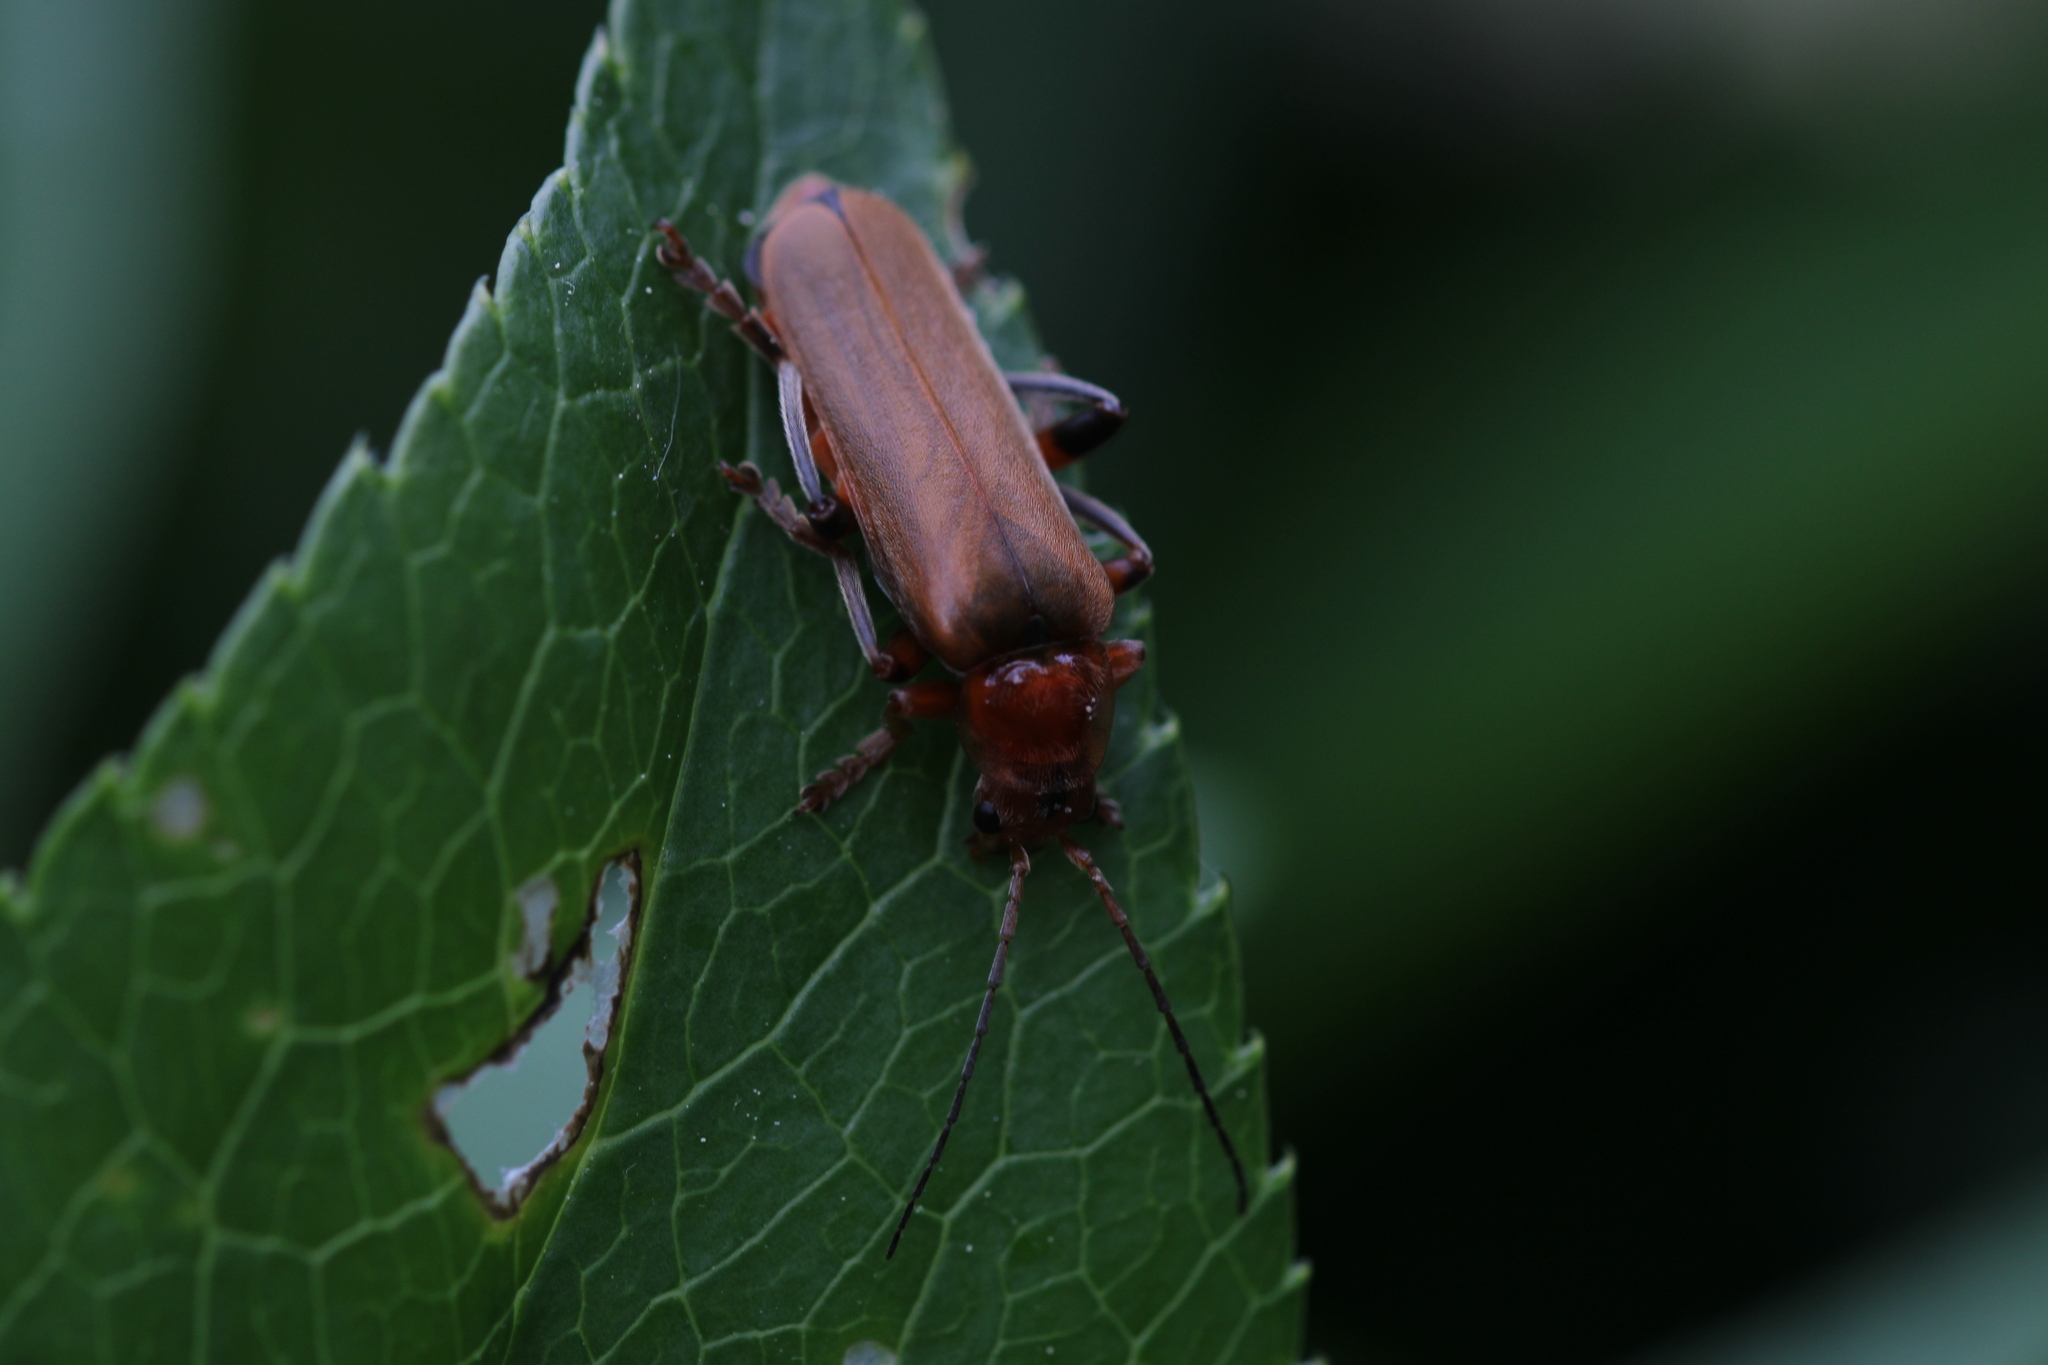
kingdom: Animalia
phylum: Arthropoda
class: Insecta
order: Coleoptera
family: Cantharidae
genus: Cantharis
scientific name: Cantharis livida
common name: Livid soldier beetle
